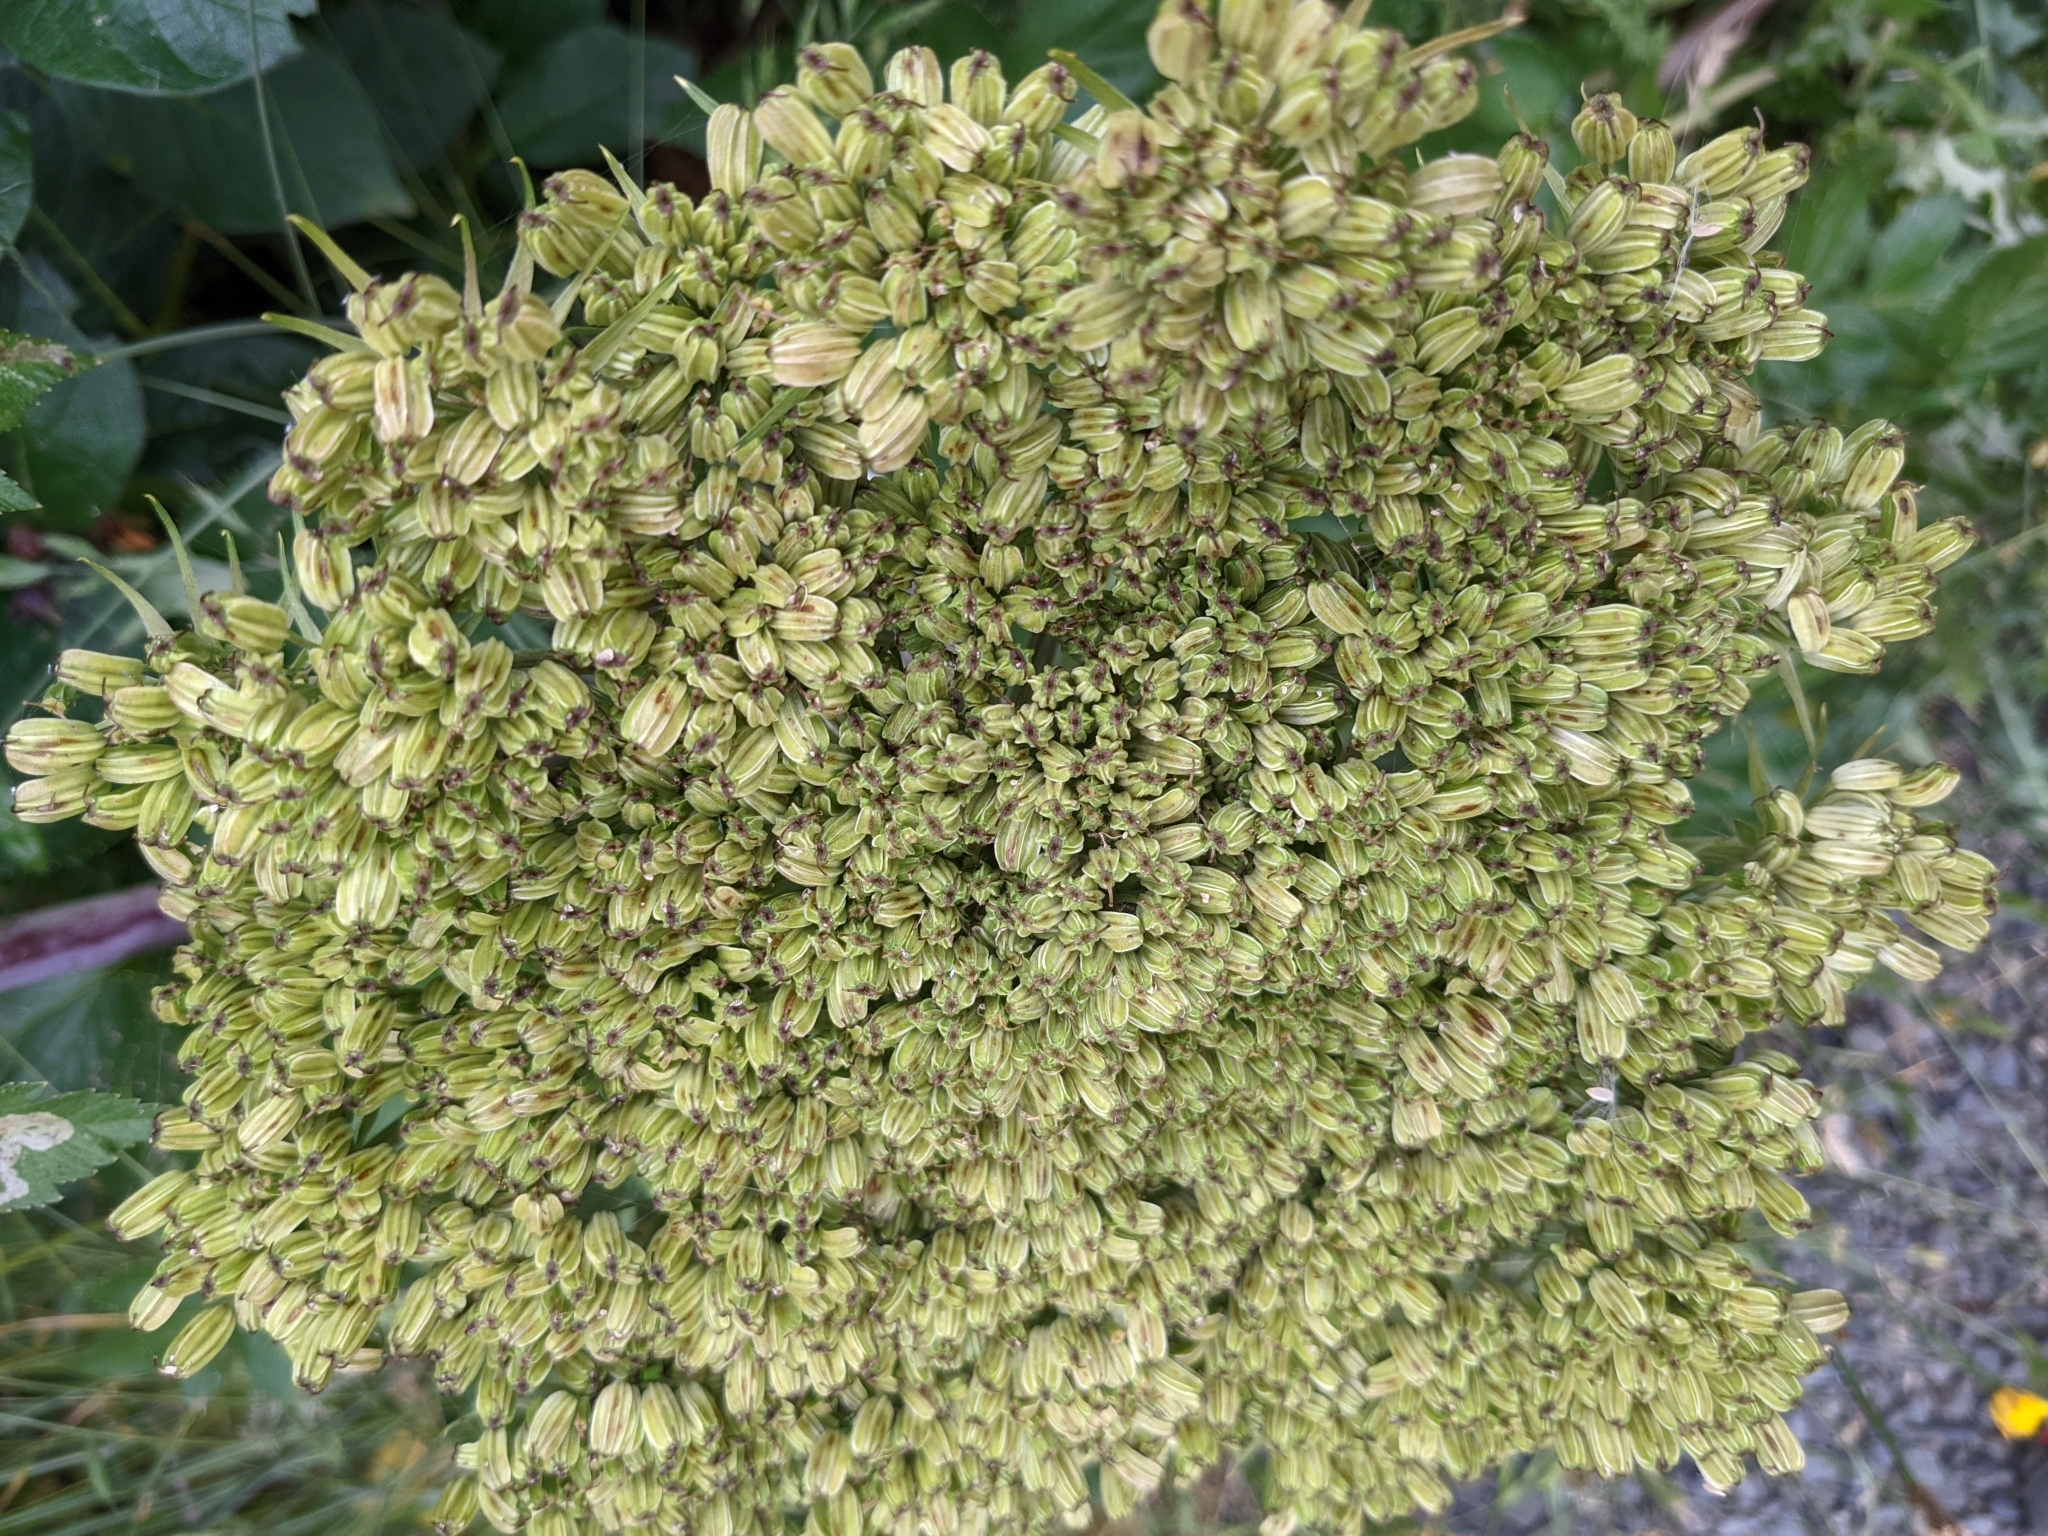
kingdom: Plantae
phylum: Tracheophyta
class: Magnoliopsida
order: Apiales
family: Apiaceae
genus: Angelica
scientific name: Angelica lucida
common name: Seabeach angelica
